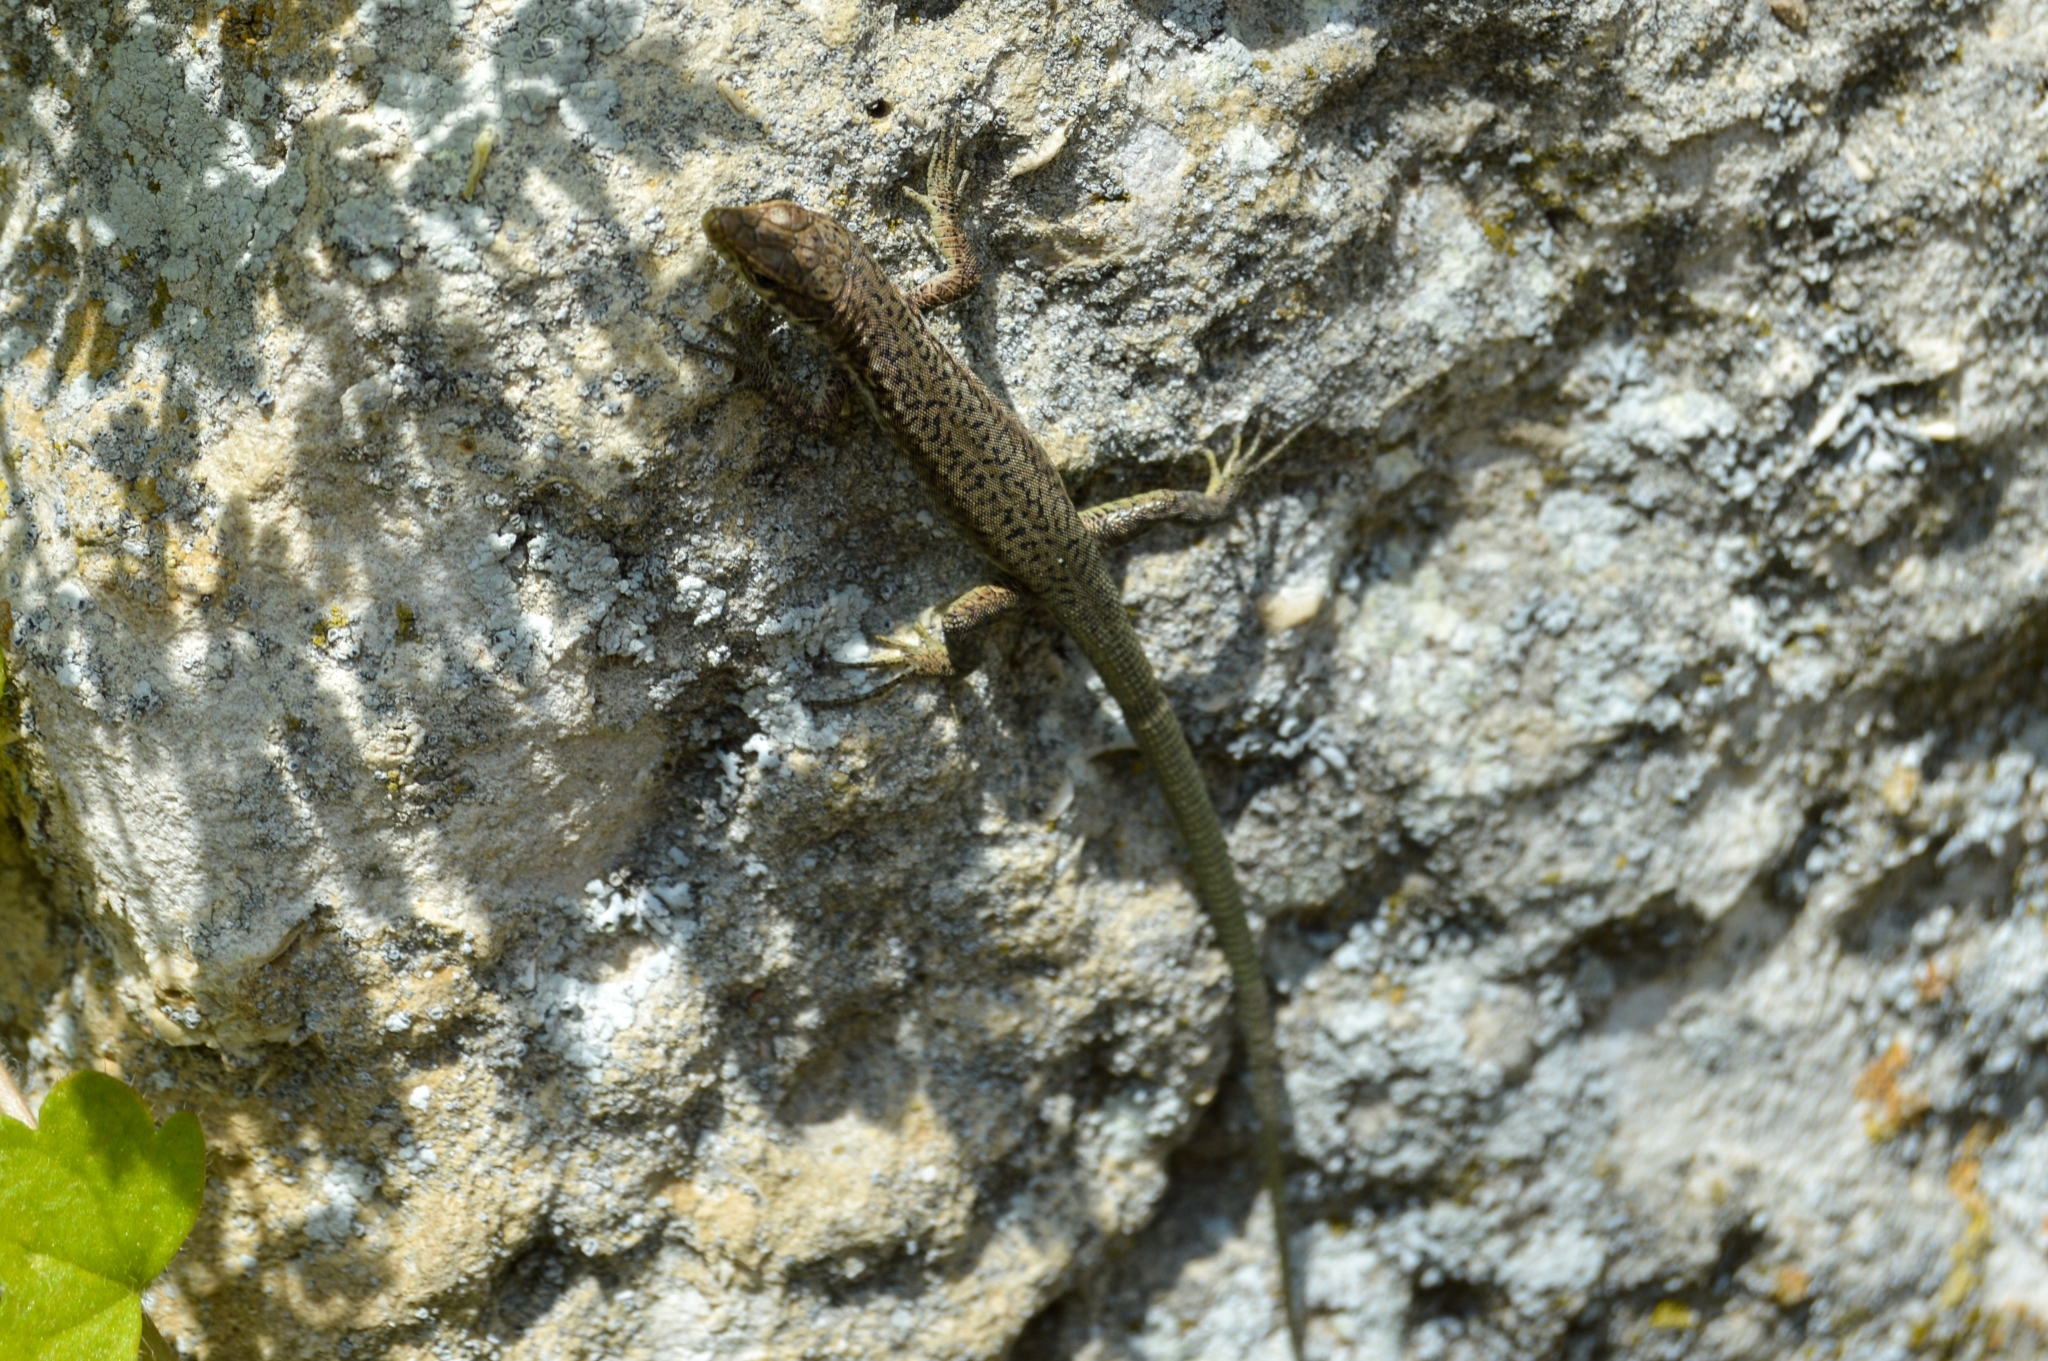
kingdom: Animalia
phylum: Chordata
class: Squamata
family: Lacertidae
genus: Darevskia
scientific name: Darevskia lindholmi
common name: Crimean rock lizard
